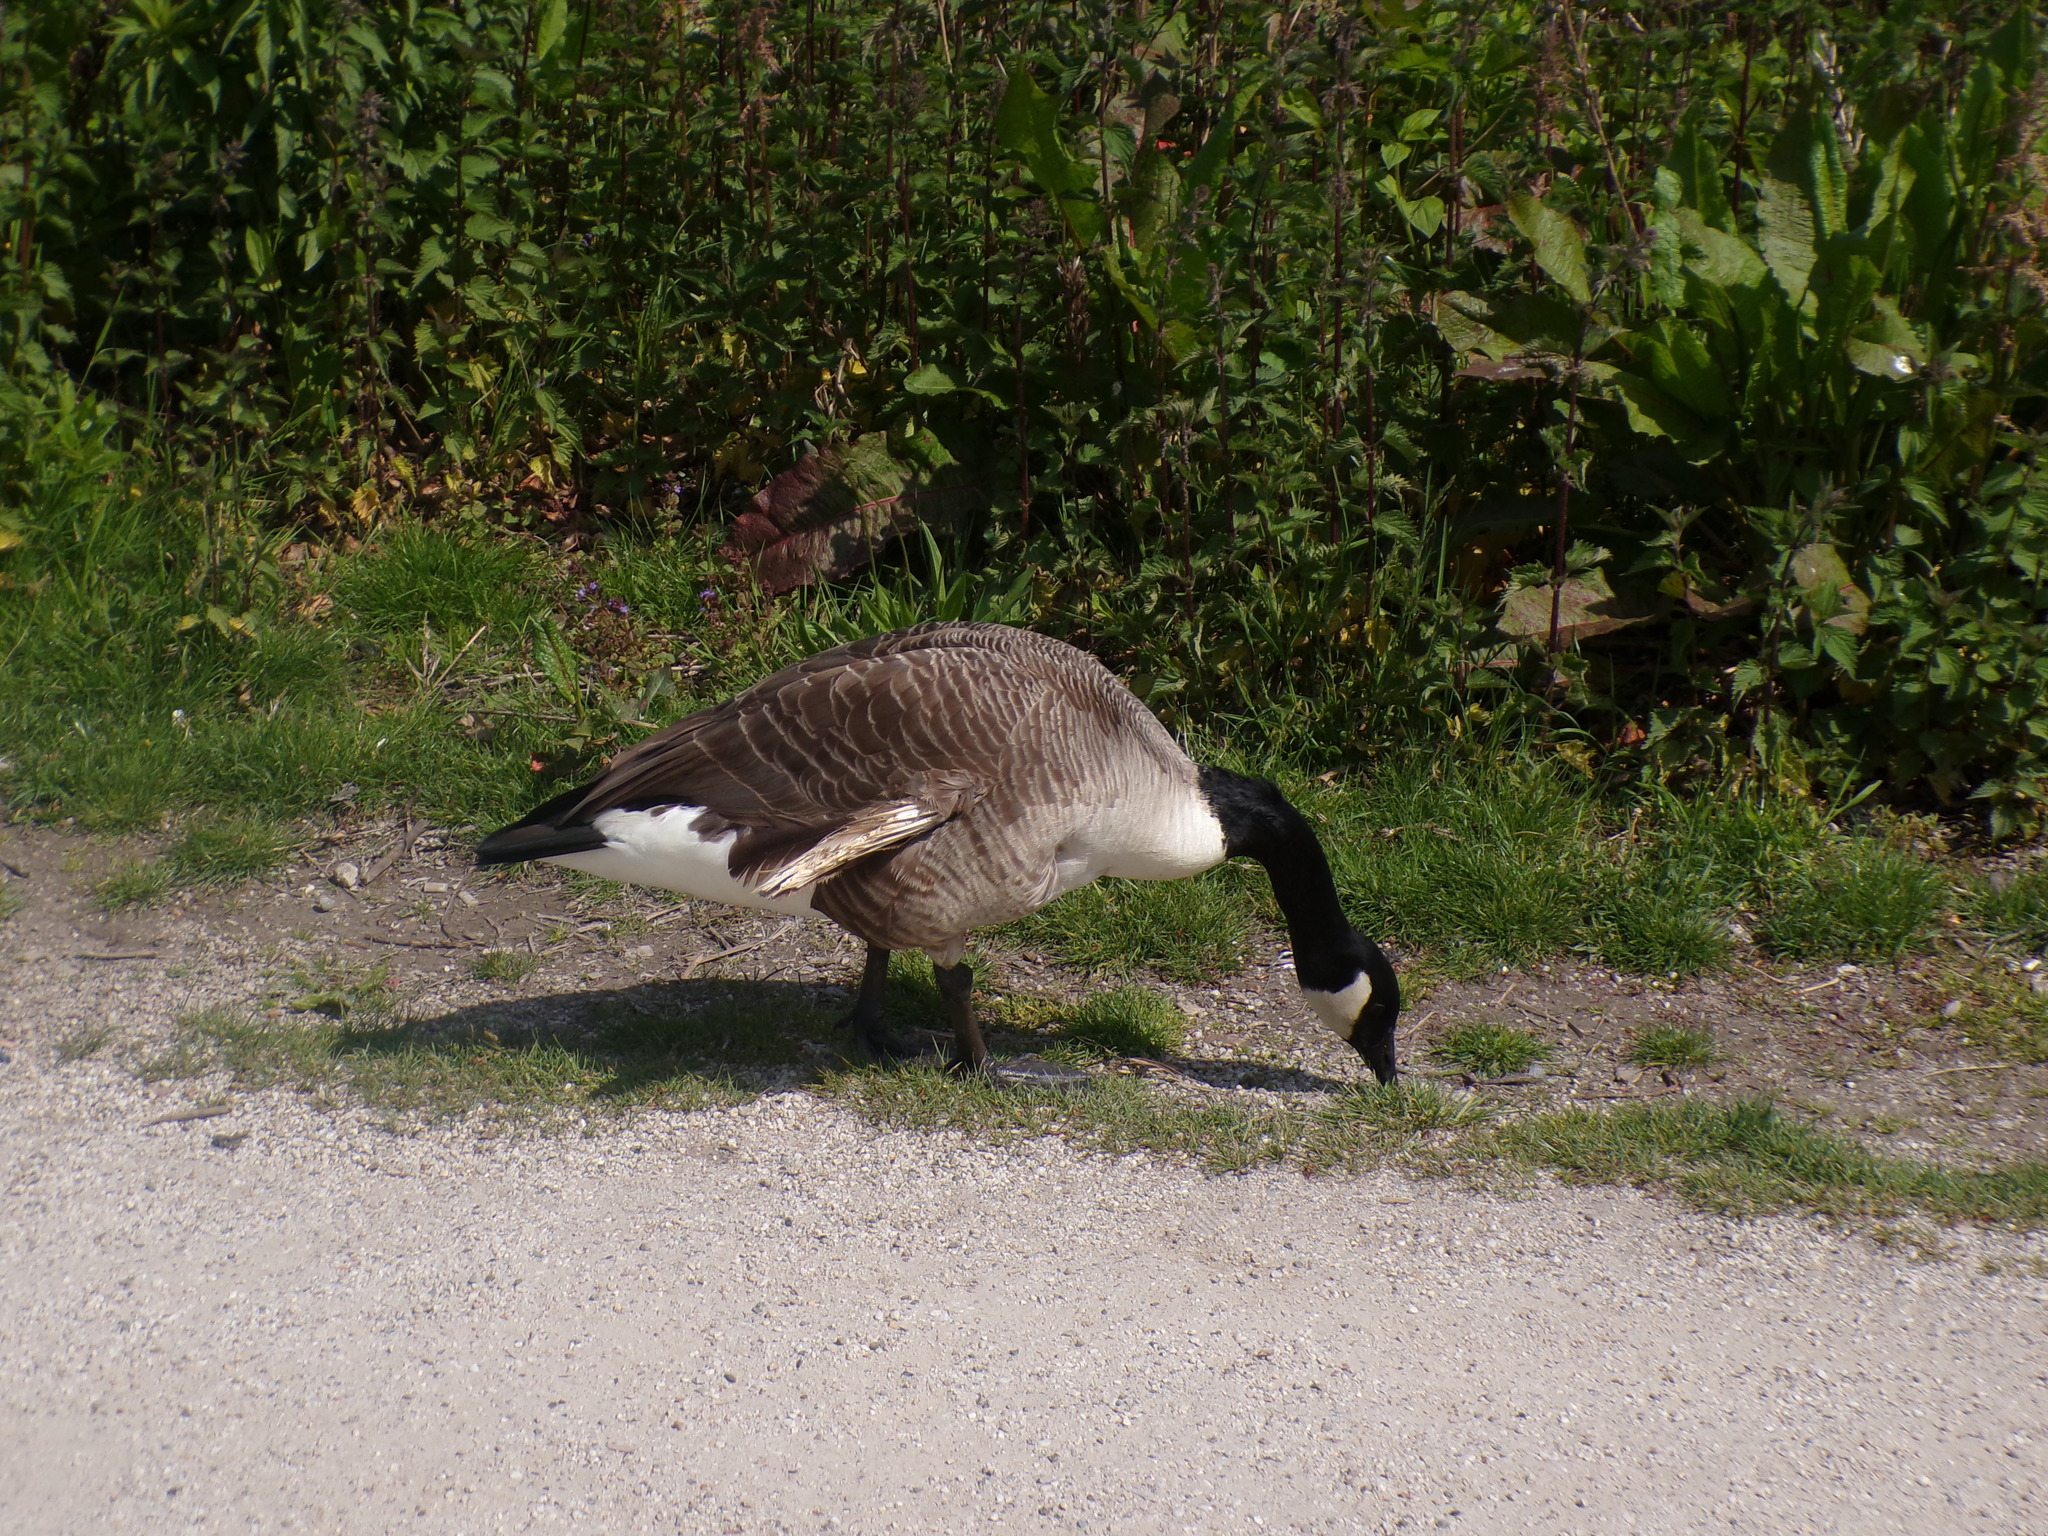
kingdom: Animalia
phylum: Chordata
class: Aves
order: Anseriformes
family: Anatidae
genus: Branta
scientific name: Branta canadensis
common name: Canada goose
